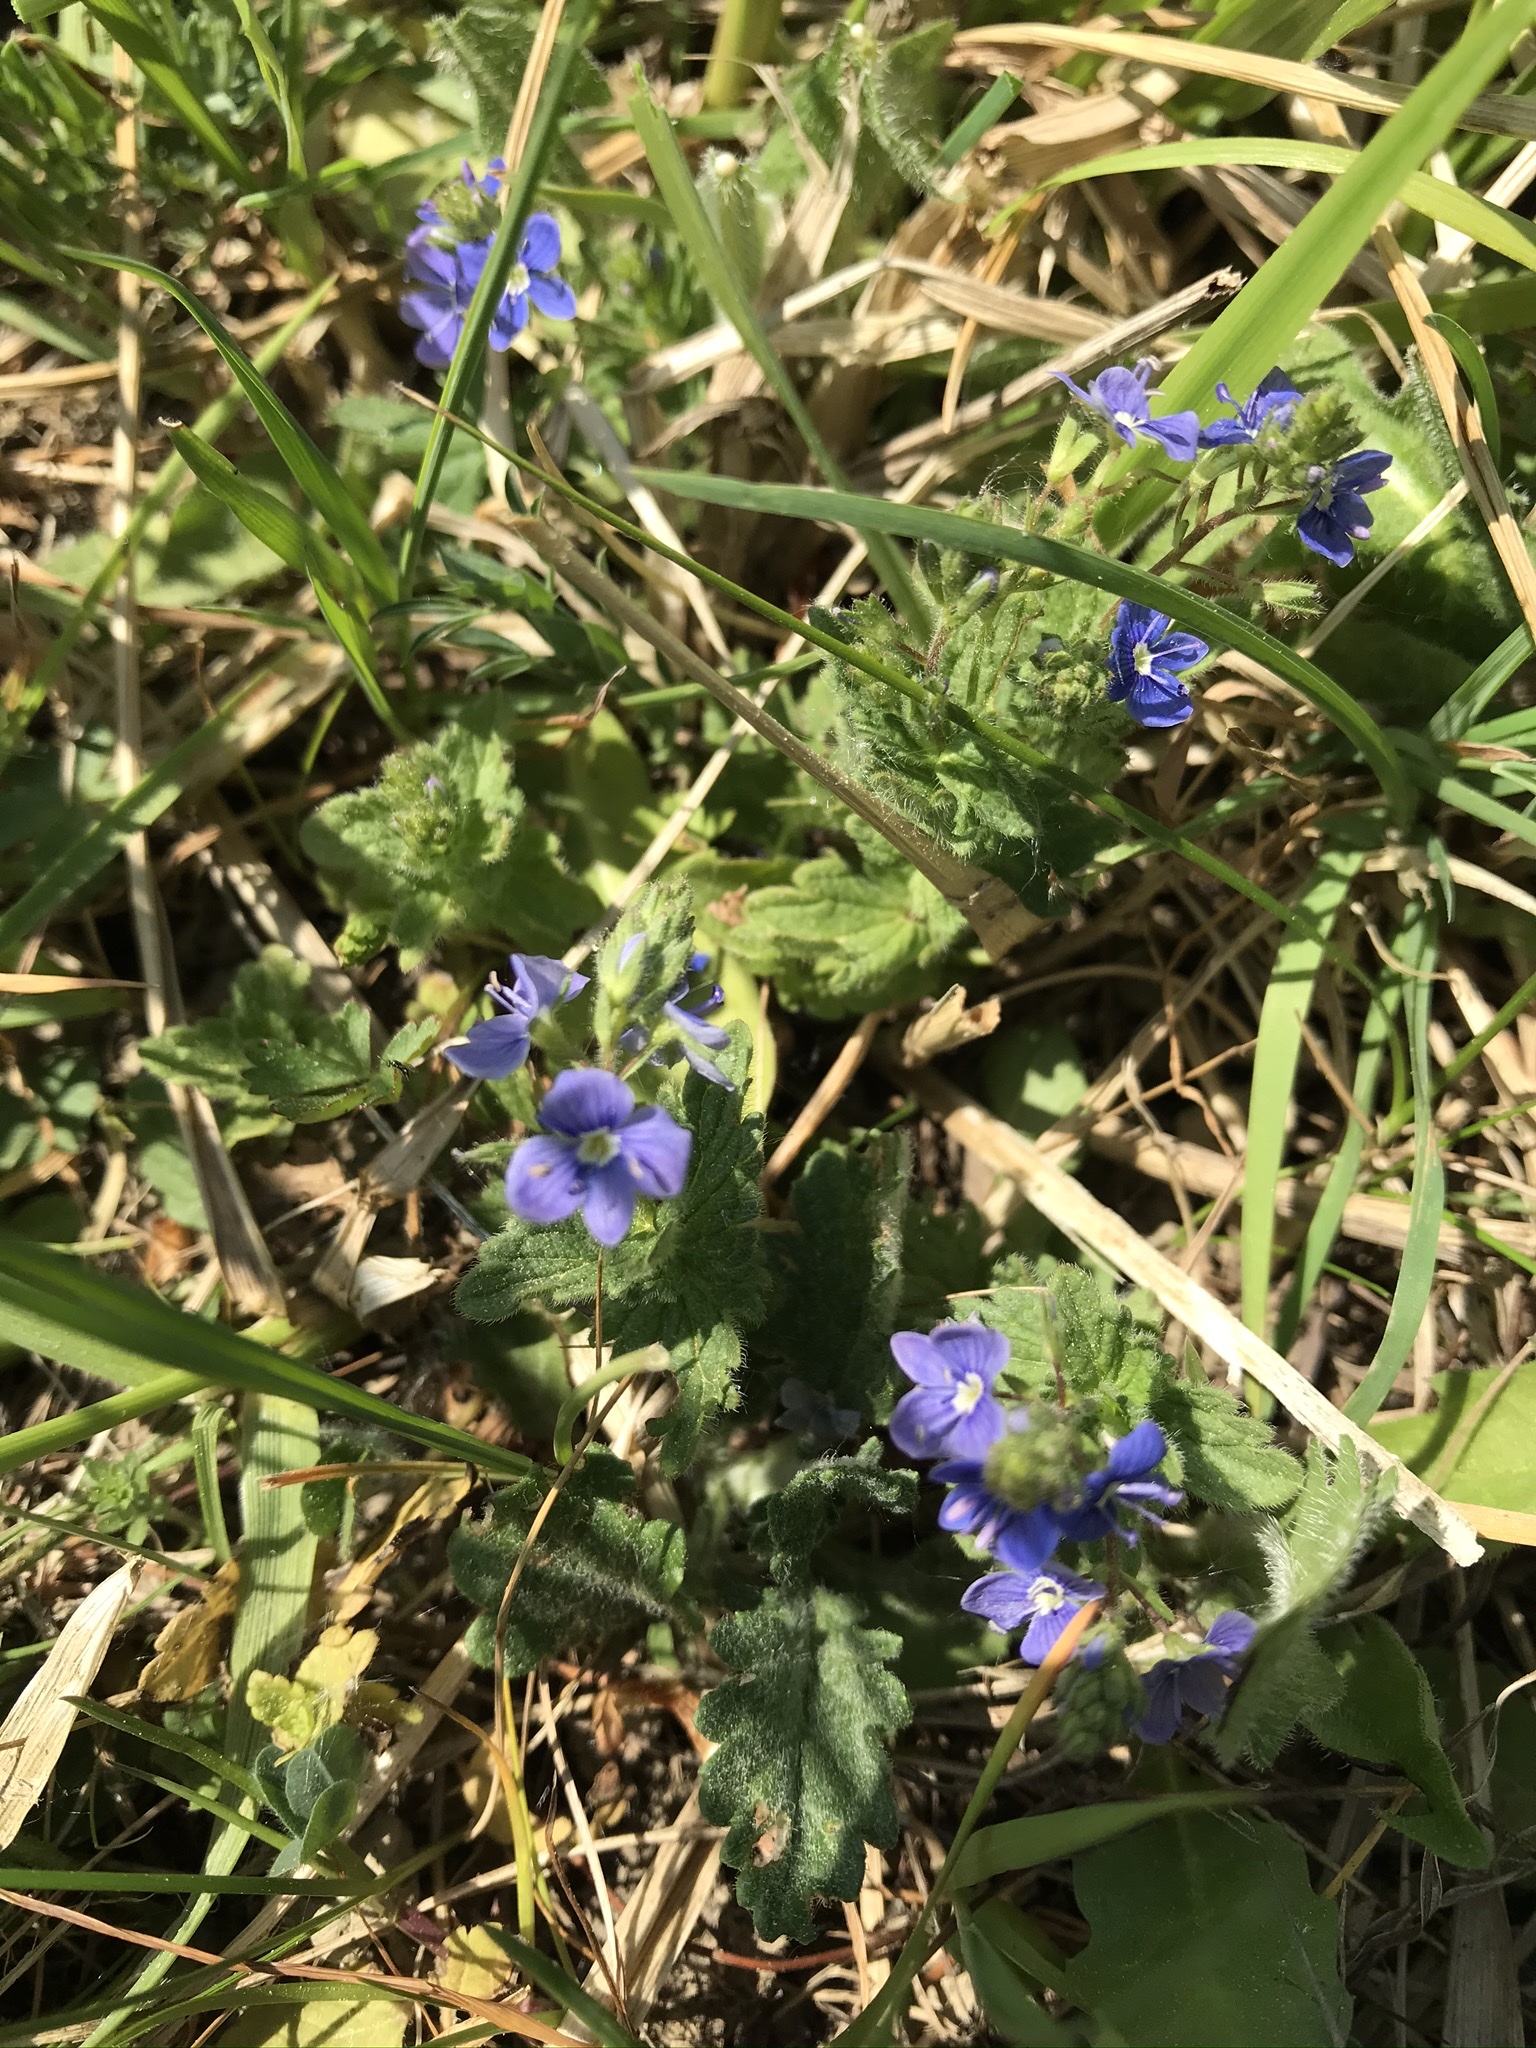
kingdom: Plantae
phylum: Tracheophyta
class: Magnoliopsida
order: Lamiales
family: Plantaginaceae
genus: Veronica
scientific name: Veronica chamaedrys
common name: Germander speedwell
